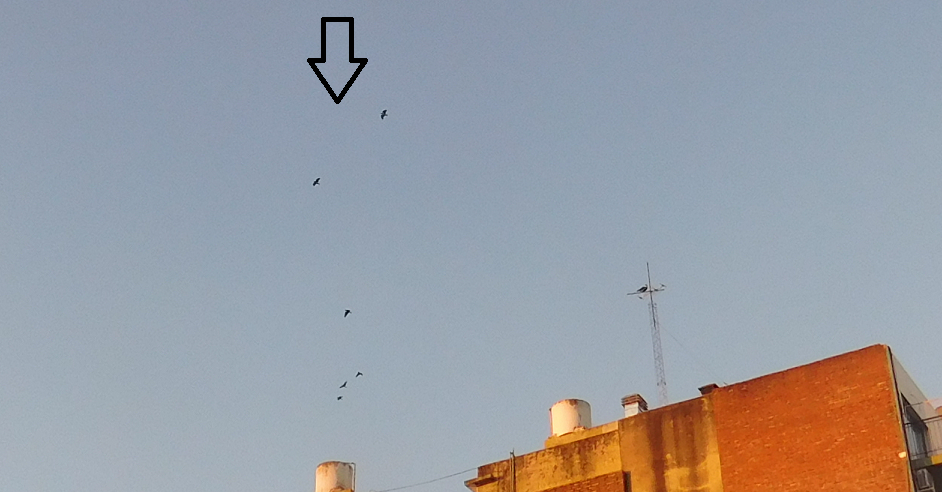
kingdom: Animalia
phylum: Chordata
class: Aves
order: Psittaciformes
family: Psittacidae
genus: Amazona
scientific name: Amazona aestiva
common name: Turquoise-fronted amazon
